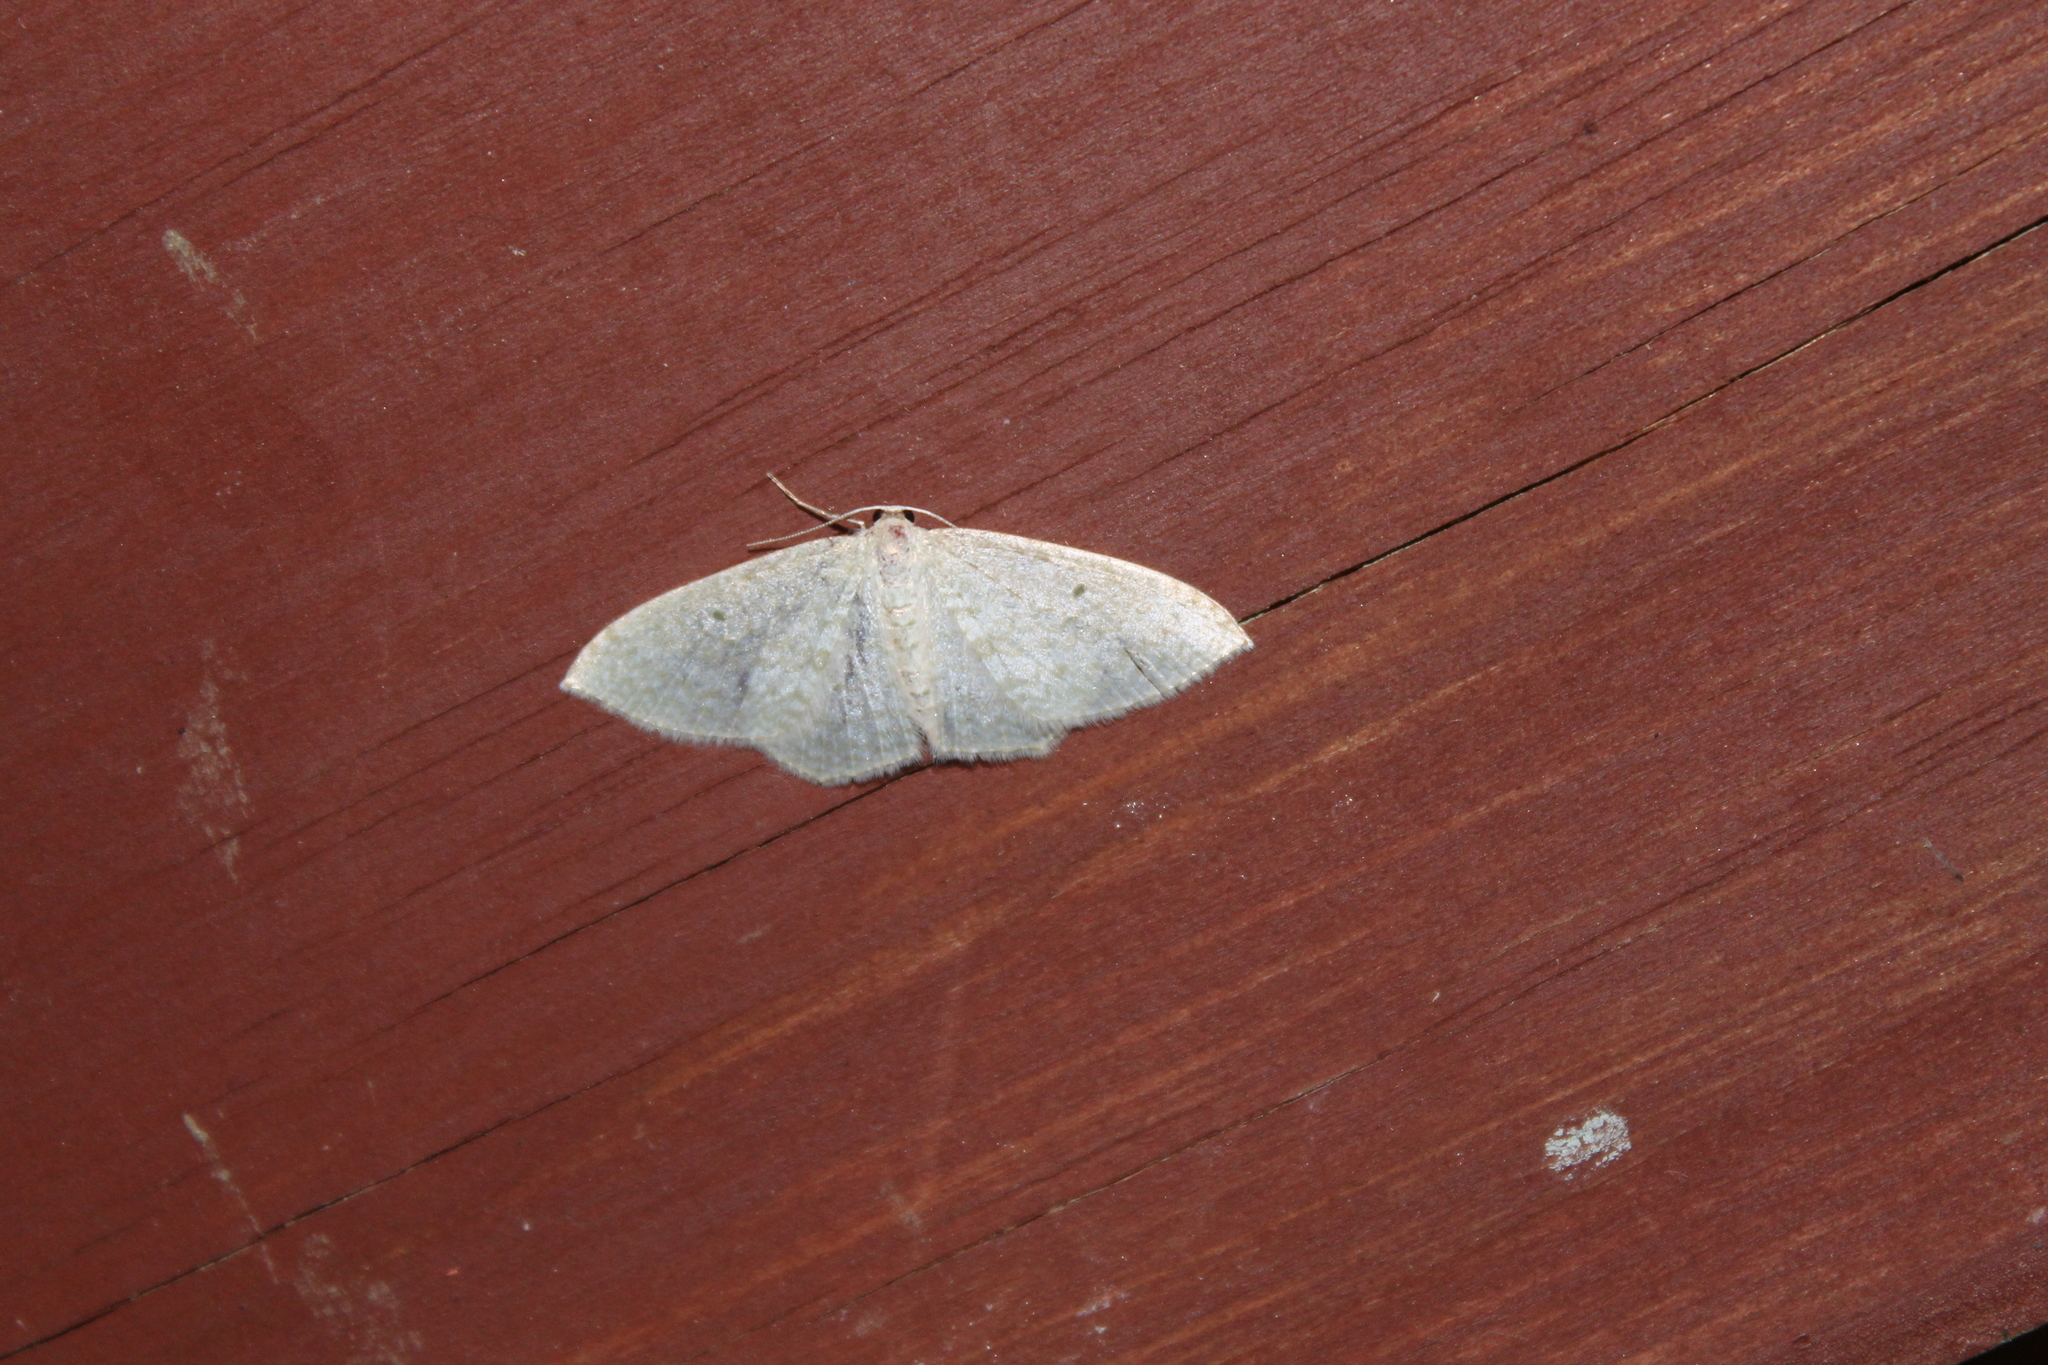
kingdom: Animalia
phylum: Arthropoda
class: Insecta
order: Lepidoptera
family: Geometridae
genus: Poecilasthena
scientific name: Poecilasthena pulchraria
